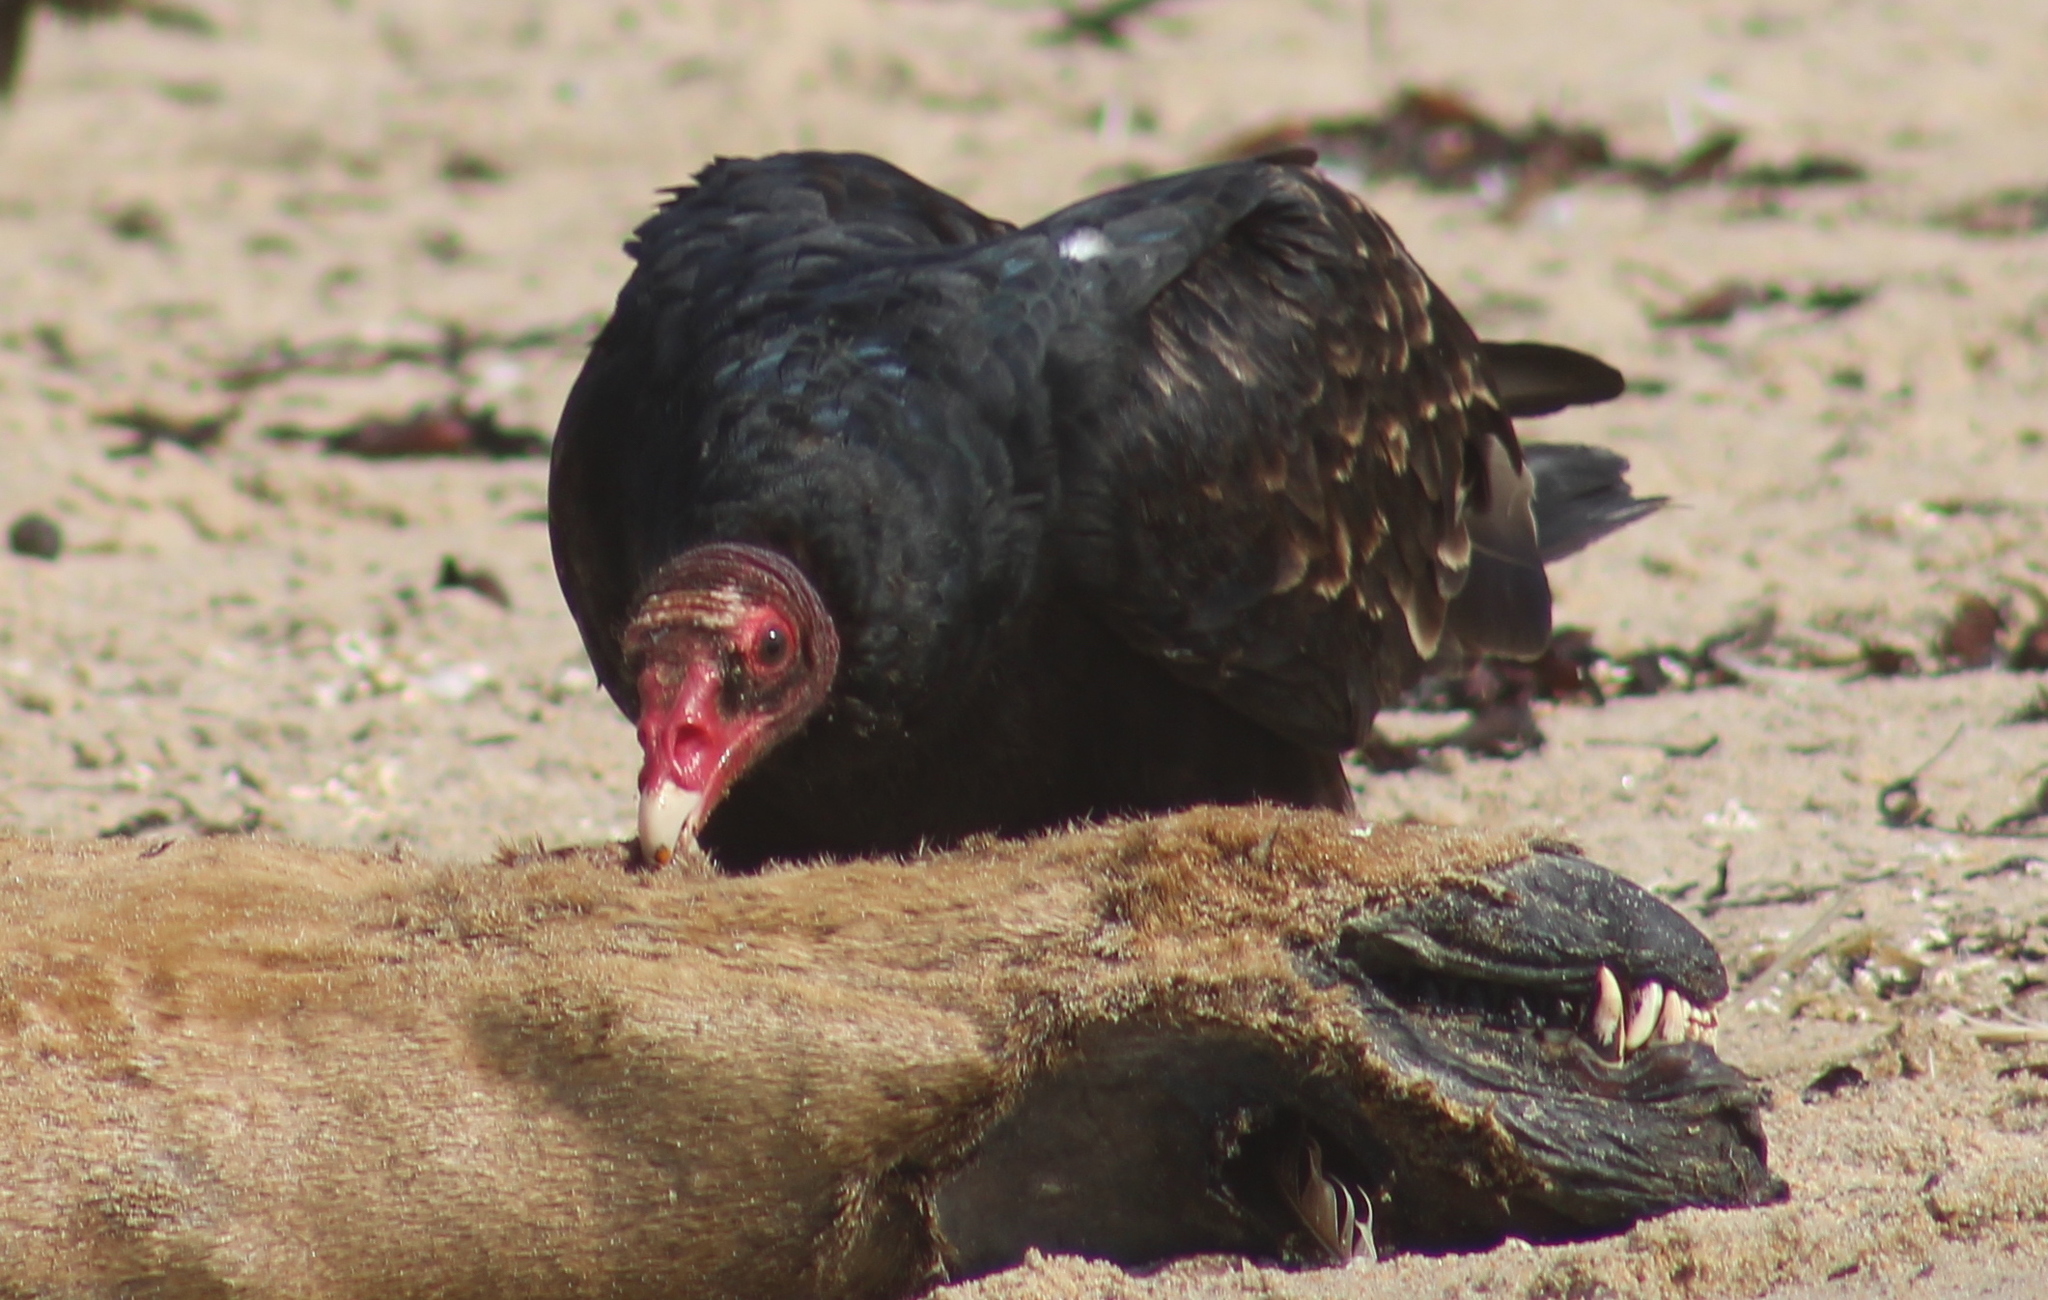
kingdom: Animalia
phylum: Chordata
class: Aves
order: Accipitriformes
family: Cathartidae
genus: Cathartes
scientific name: Cathartes aura
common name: Turkey vulture
